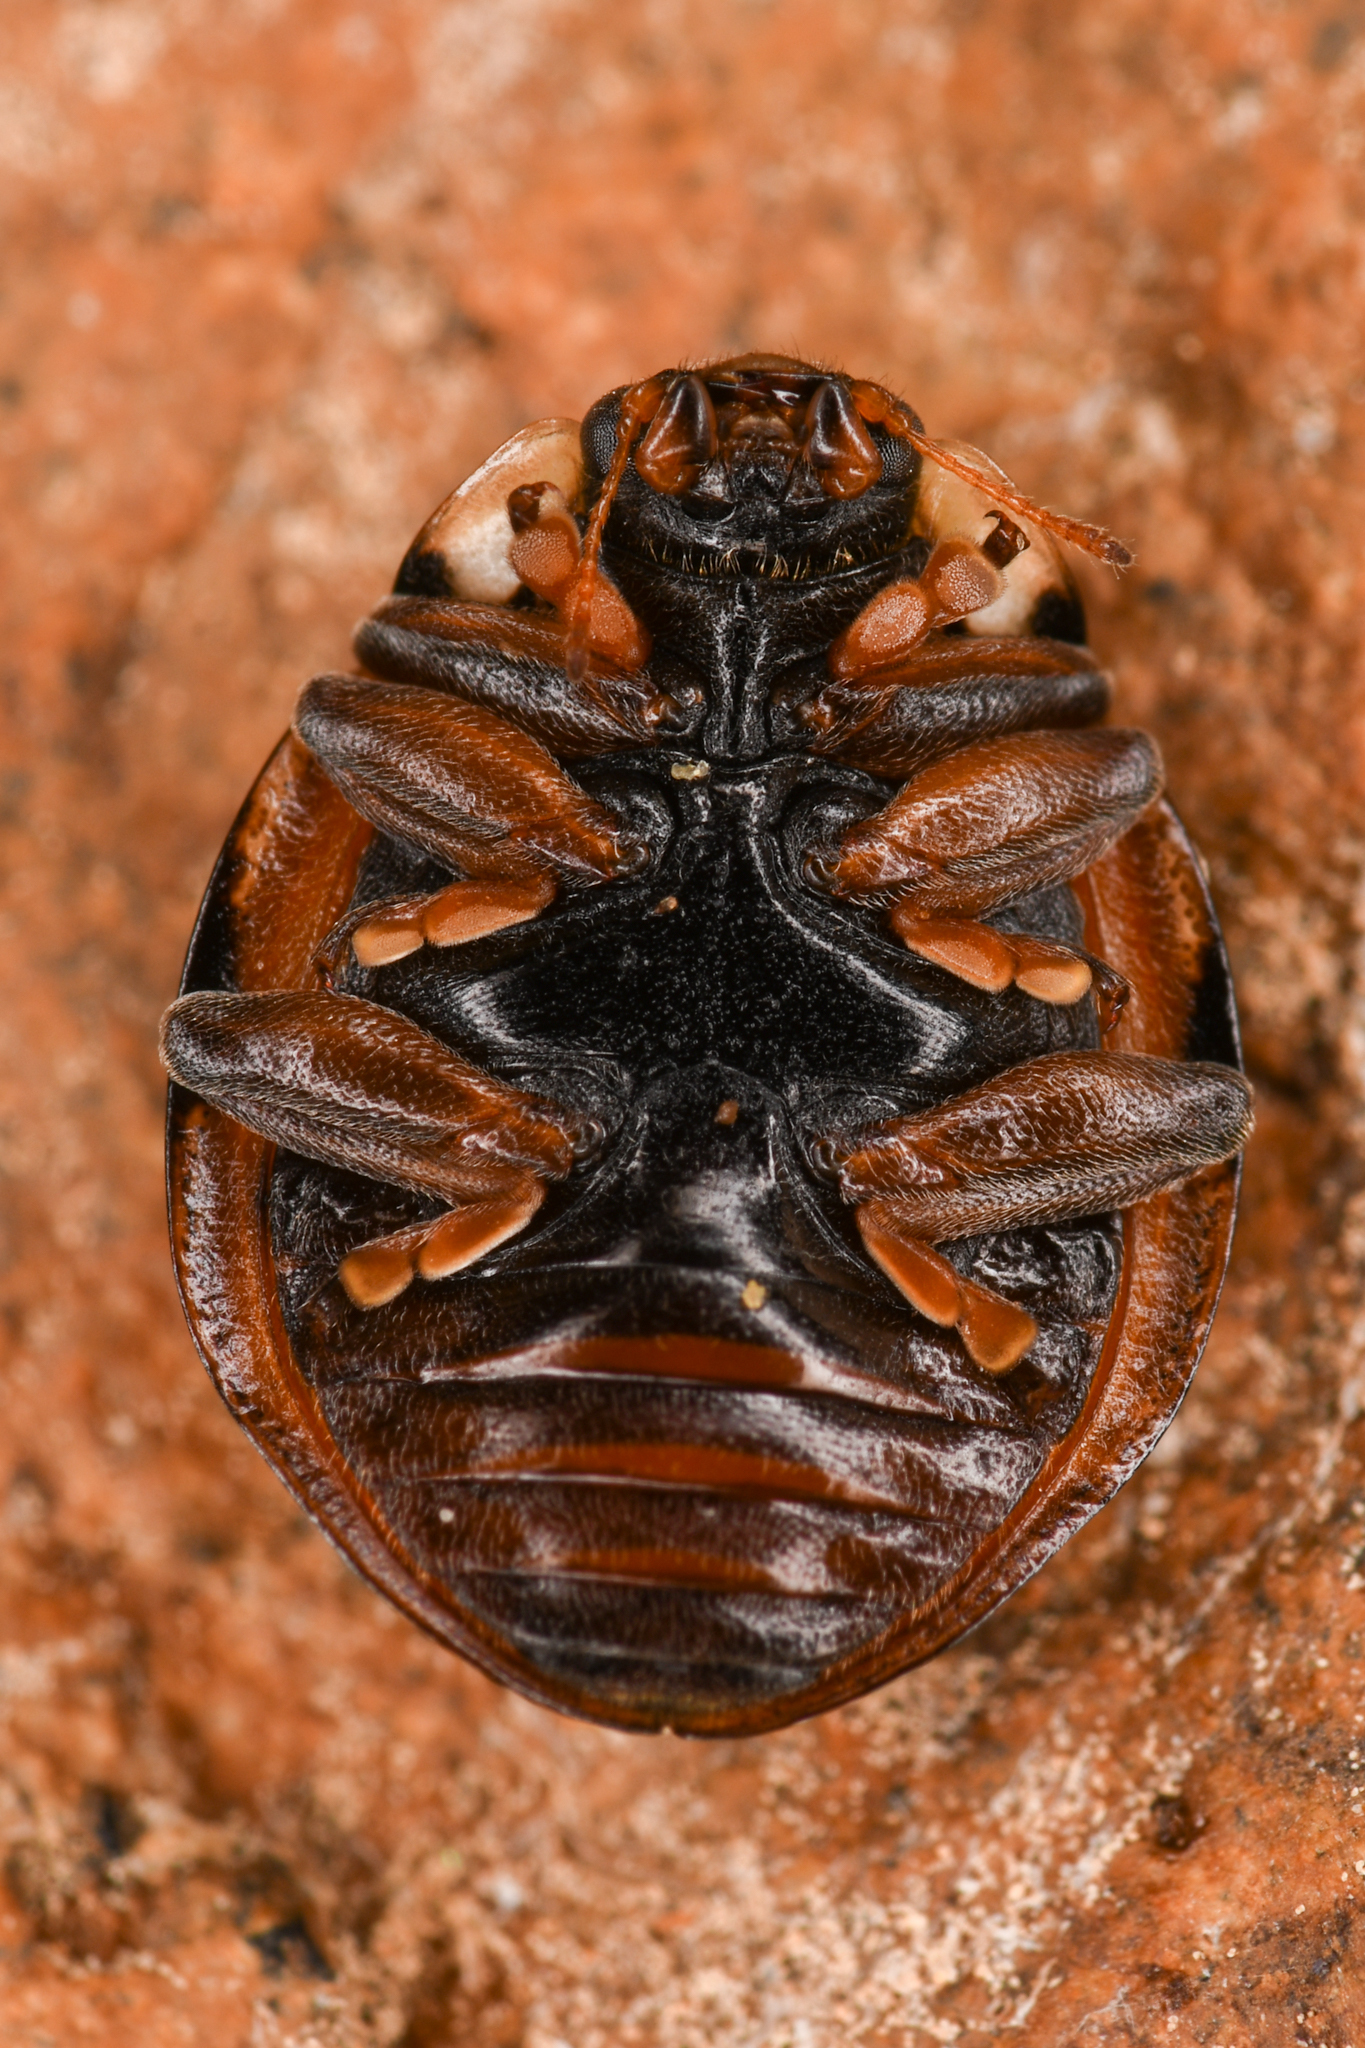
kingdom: Animalia
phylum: Arthropoda
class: Insecta
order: Coleoptera
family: Coccinellidae
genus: Anatis
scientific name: Anatis mali
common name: Eye-spotted lady beetle
